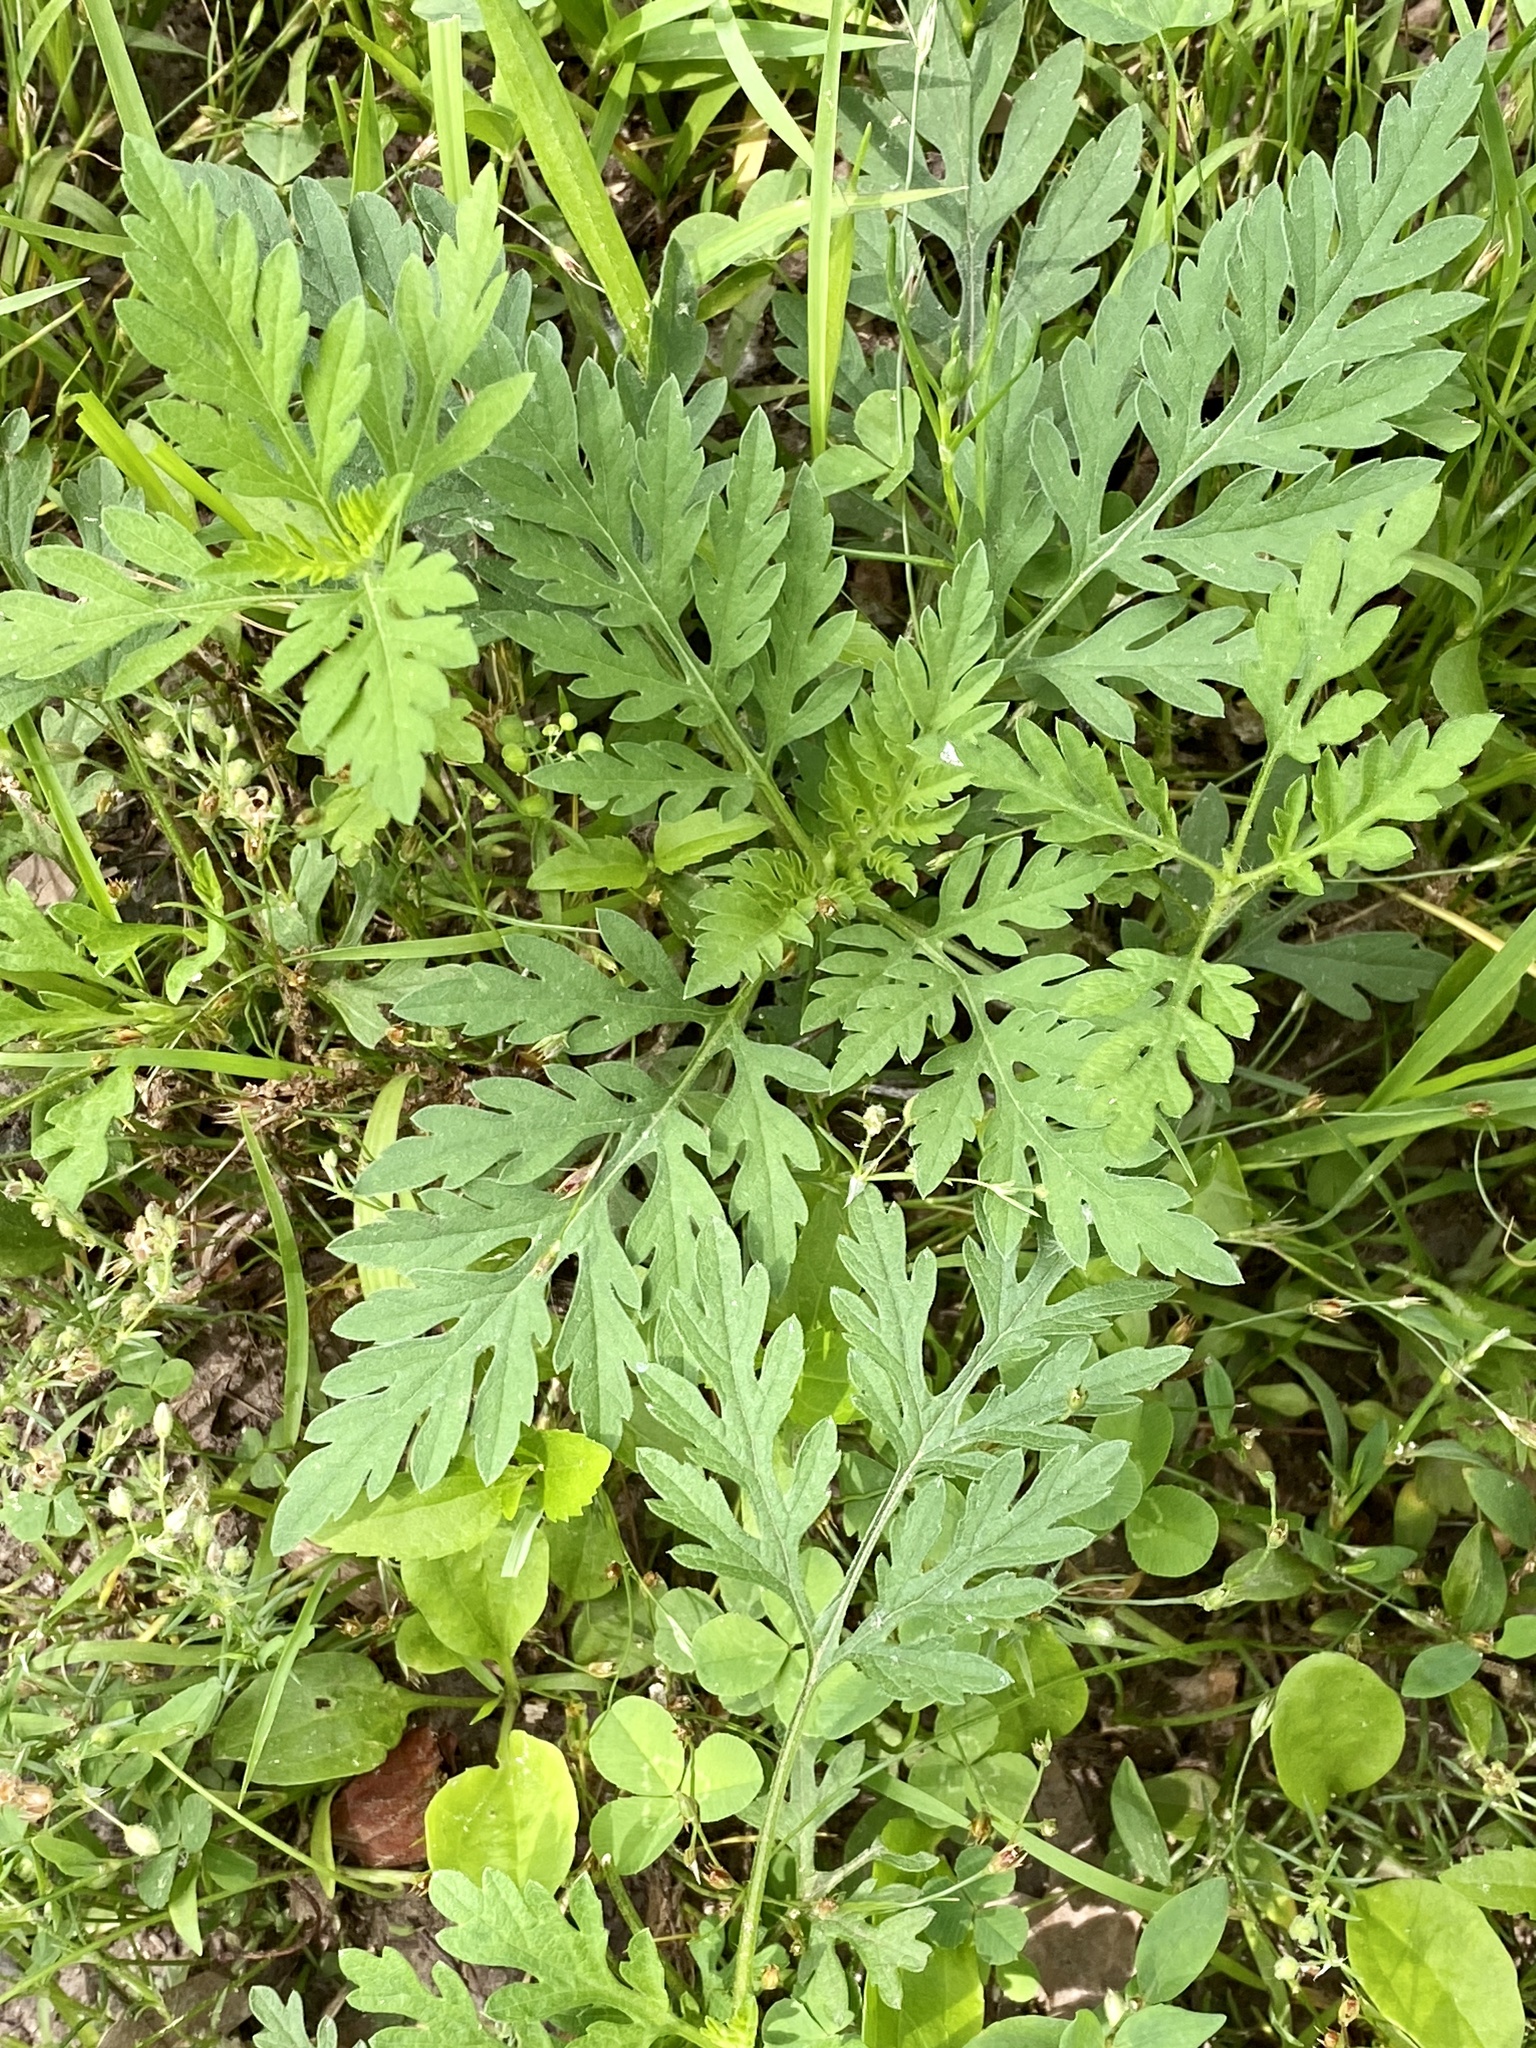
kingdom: Plantae
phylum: Tracheophyta
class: Magnoliopsida
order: Asterales
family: Asteraceae
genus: Ambrosia
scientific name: Ambrosia artemisiifolia
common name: Annual ragweed
